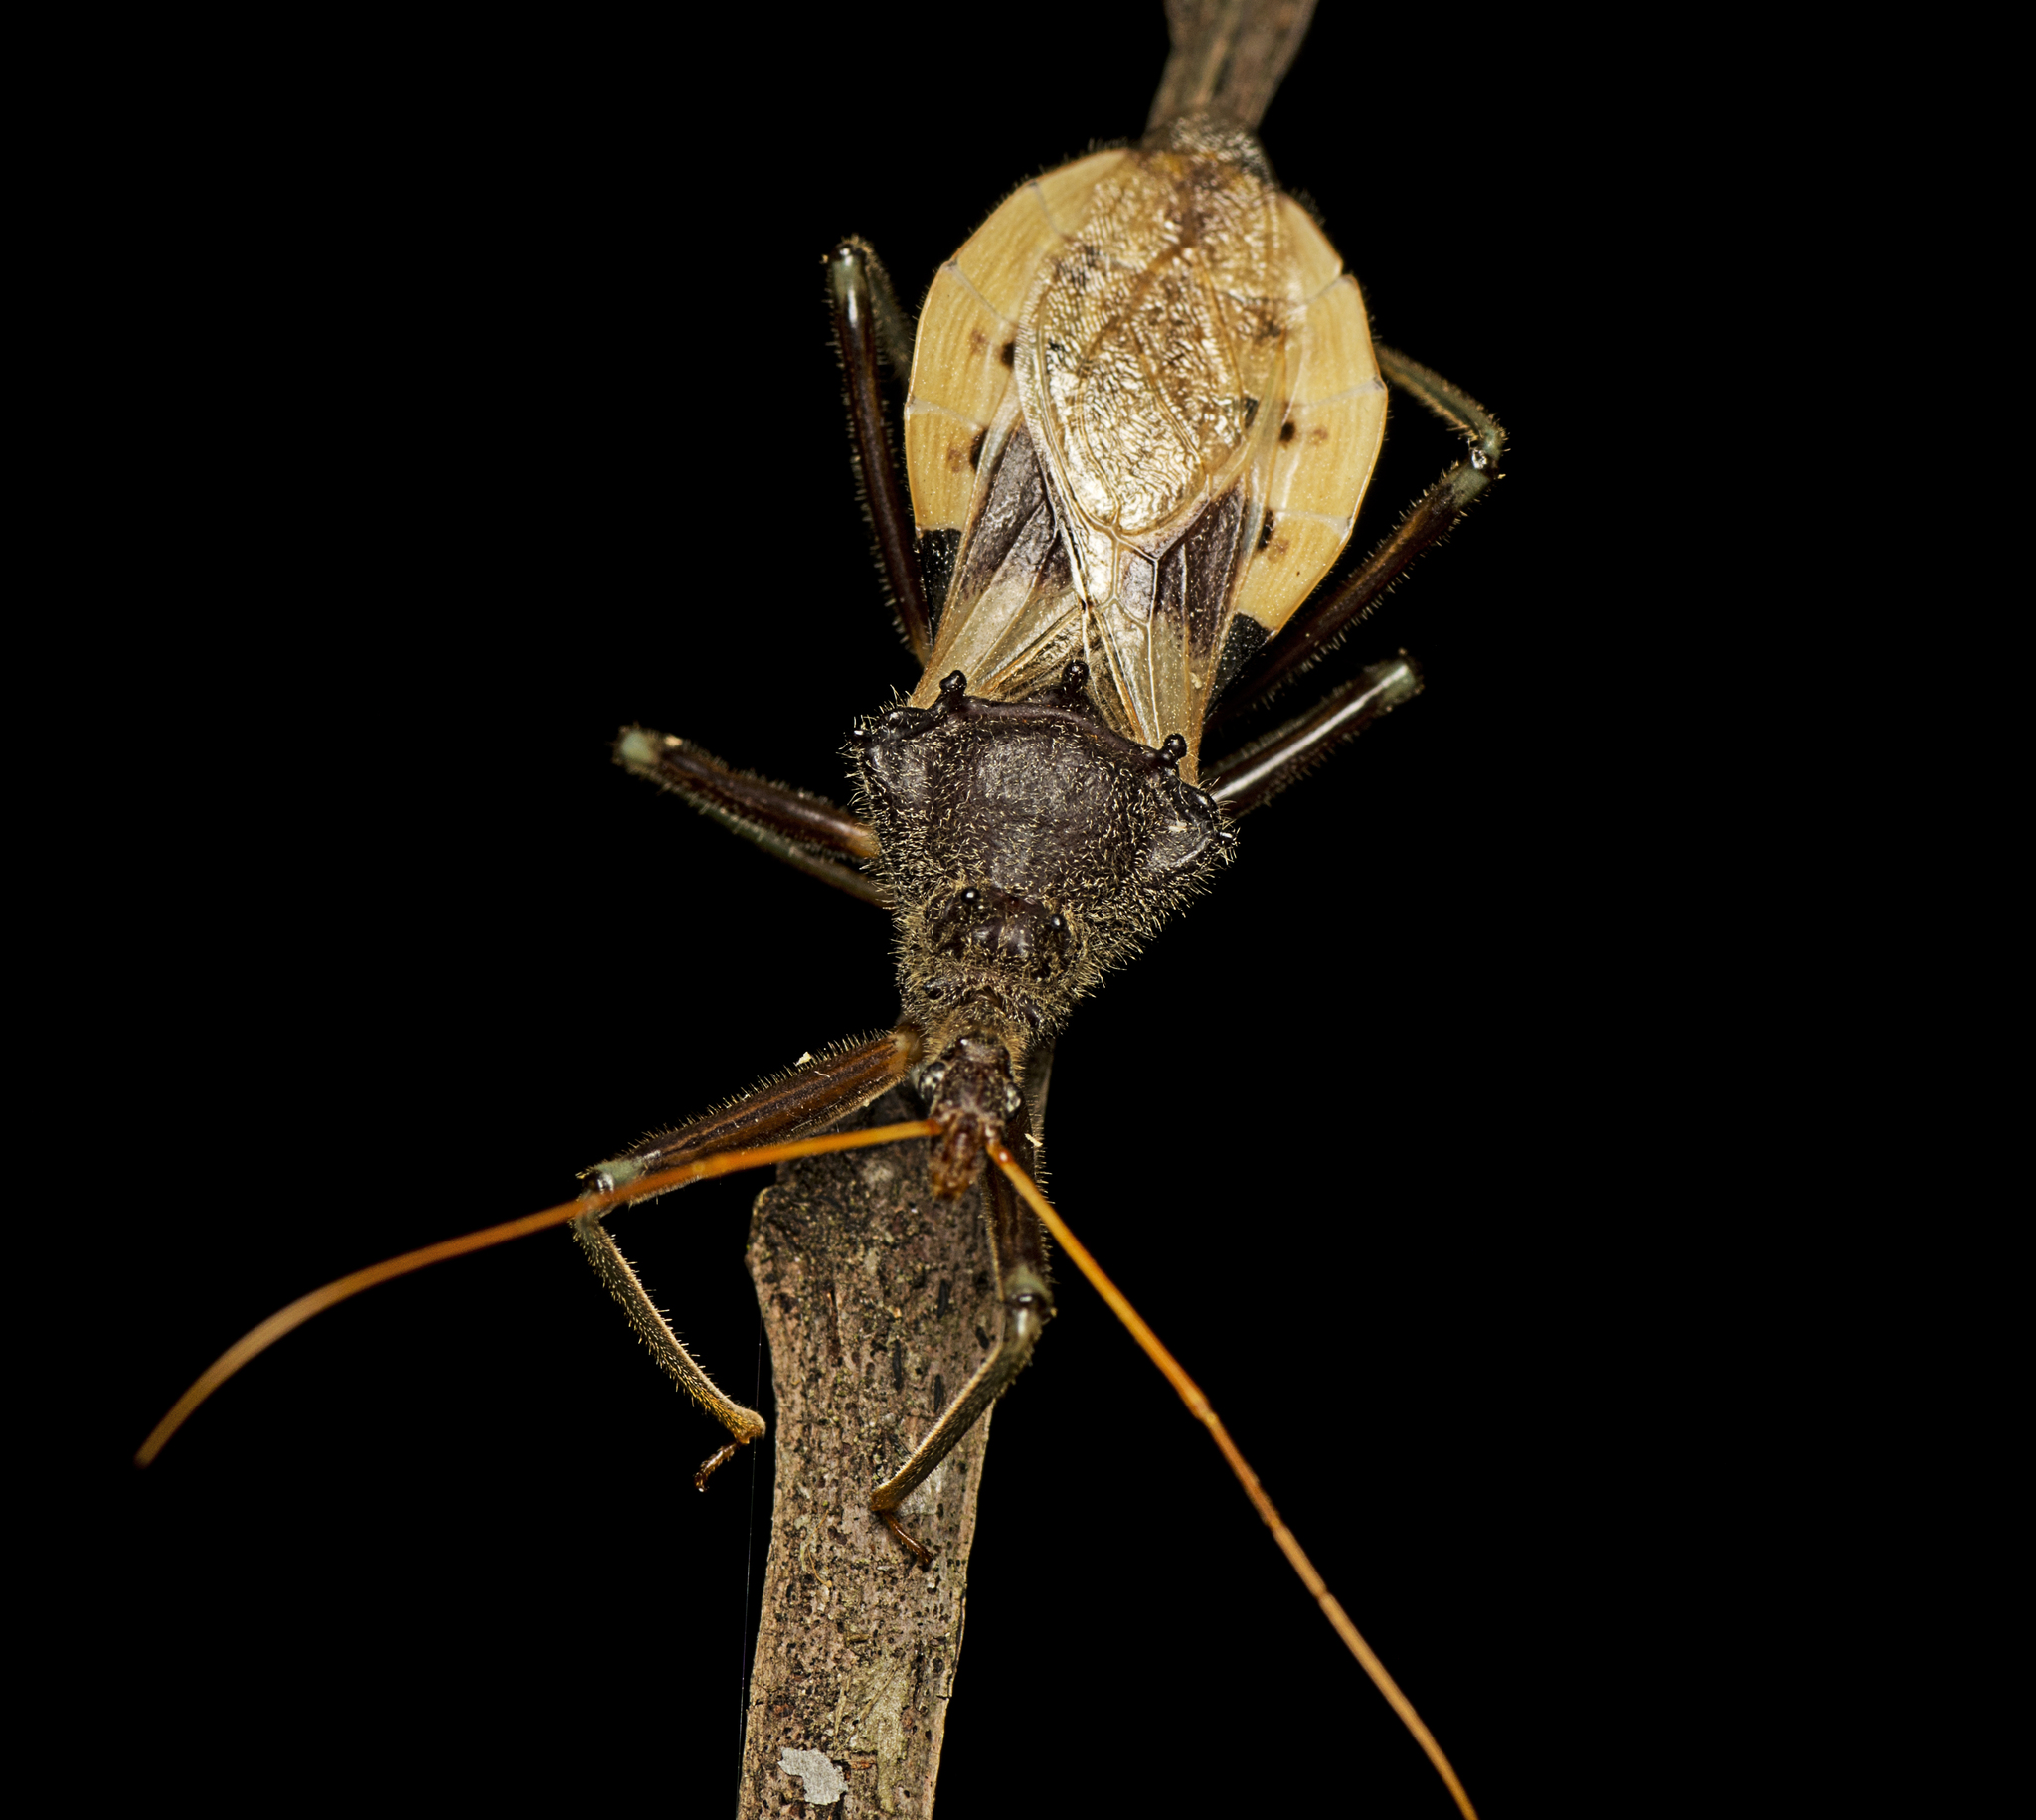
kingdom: Animalia
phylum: Arthropoda
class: Insecta
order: Hemiptera
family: Reduviidae
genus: Pristhesancus
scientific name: Pristhesancus plagipennis
